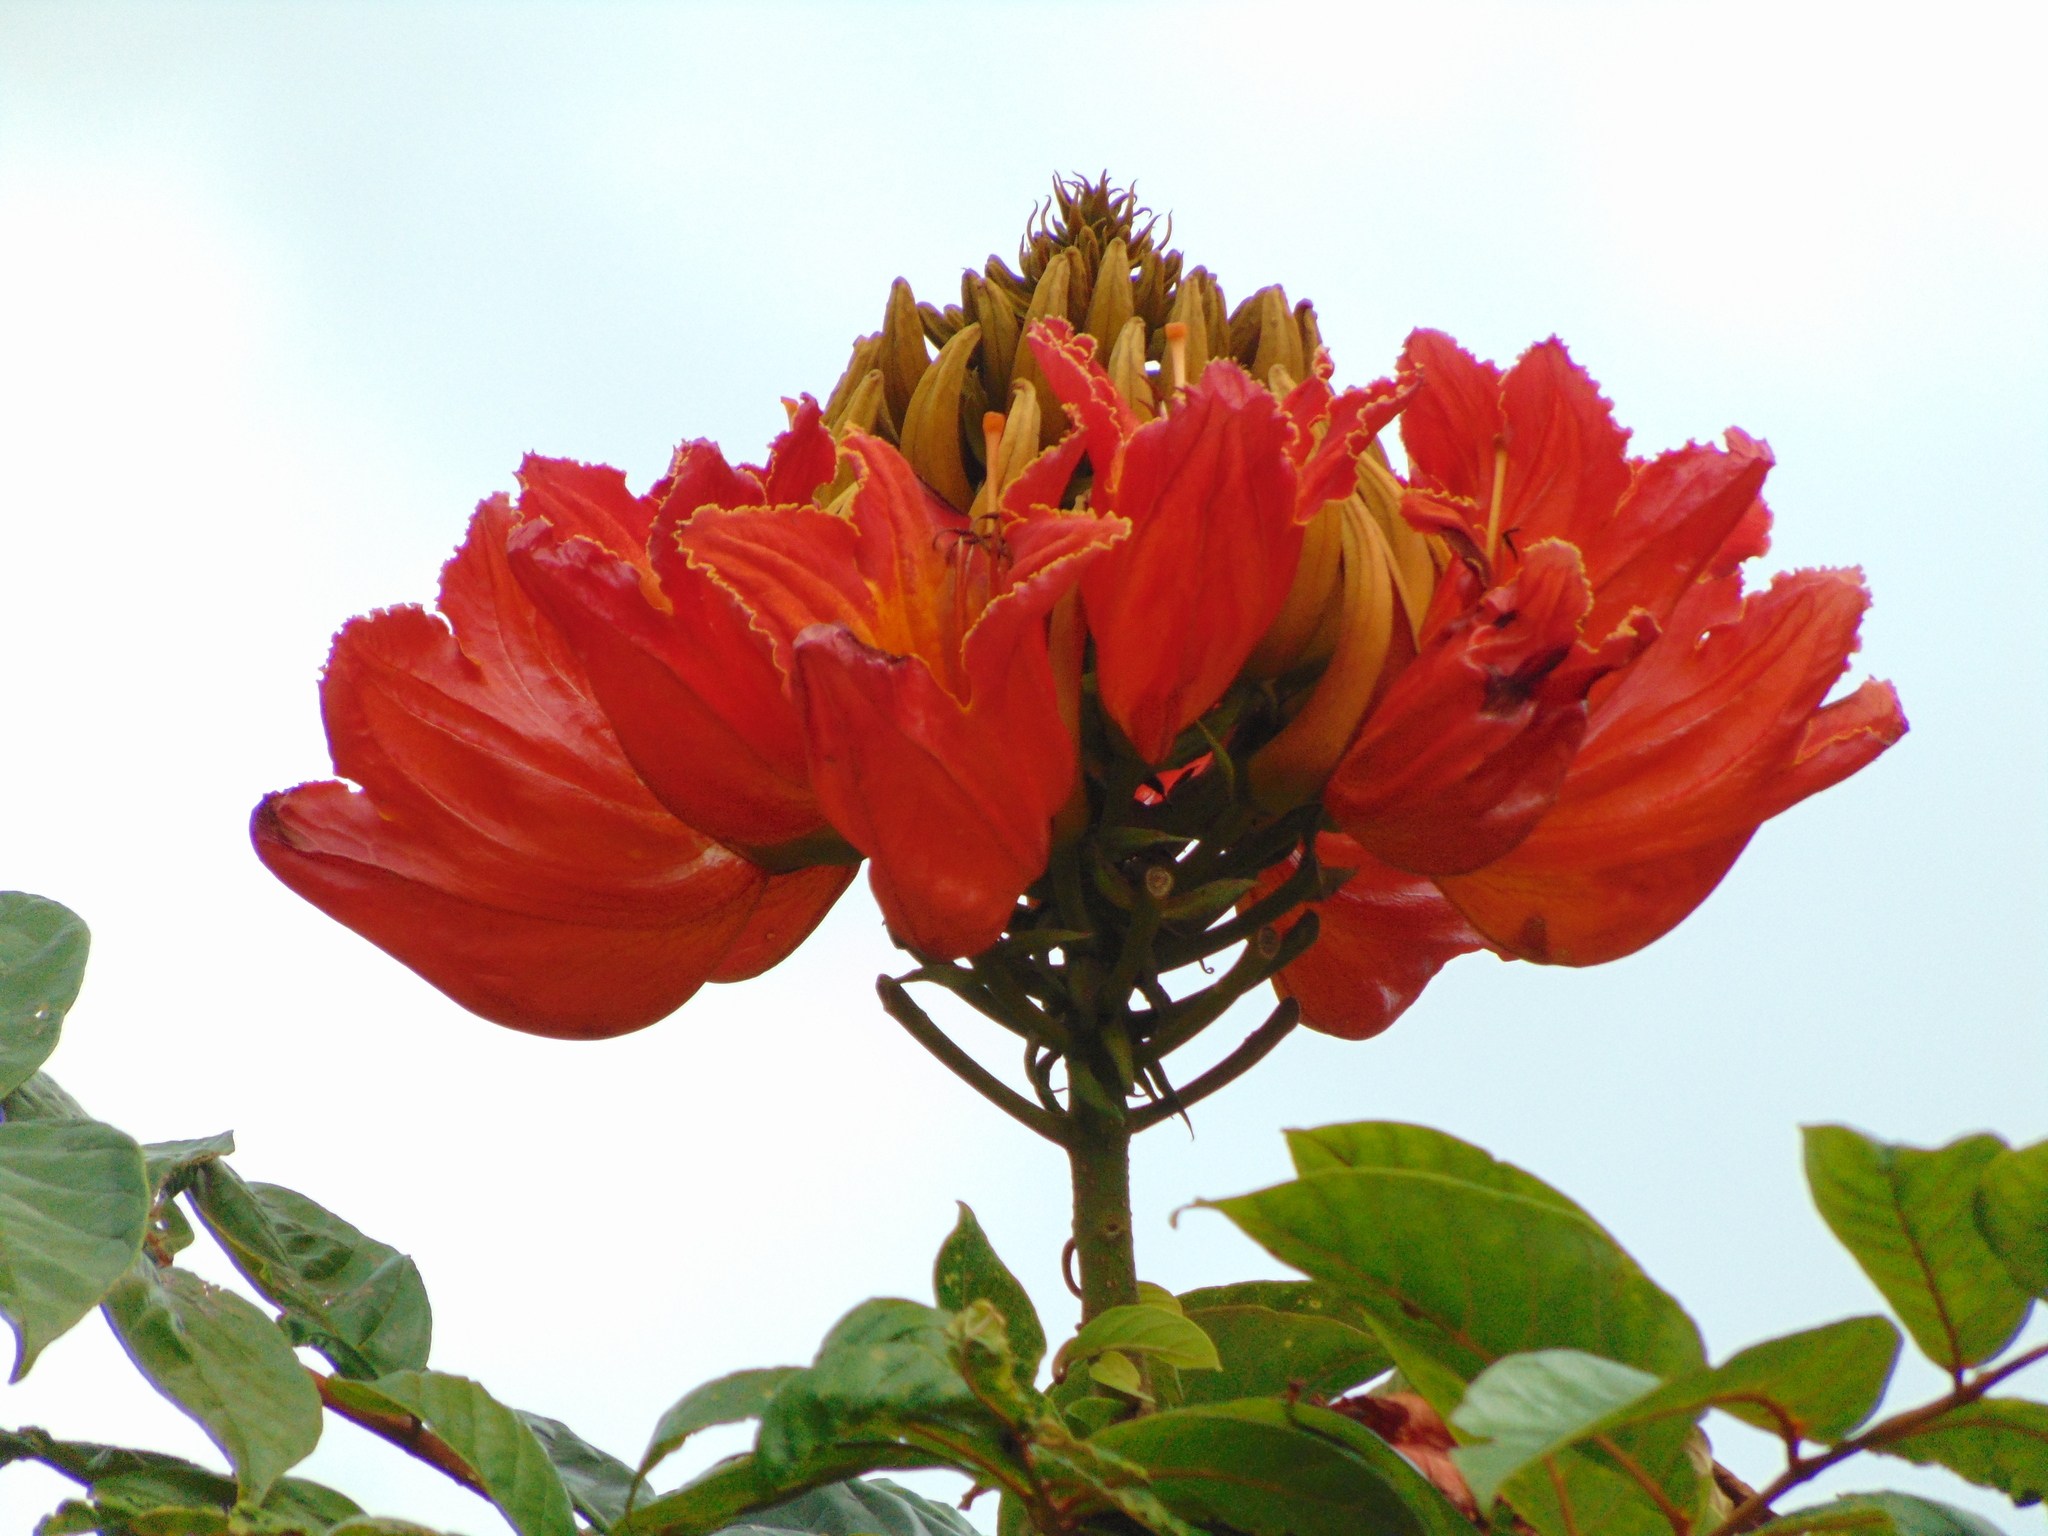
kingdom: Plantae
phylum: Tracheophyta
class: Magnoliopsida
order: Lamiales
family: Bignoniaceae
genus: Spathodea
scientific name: Spathodea campanulata
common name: African tuliptree
